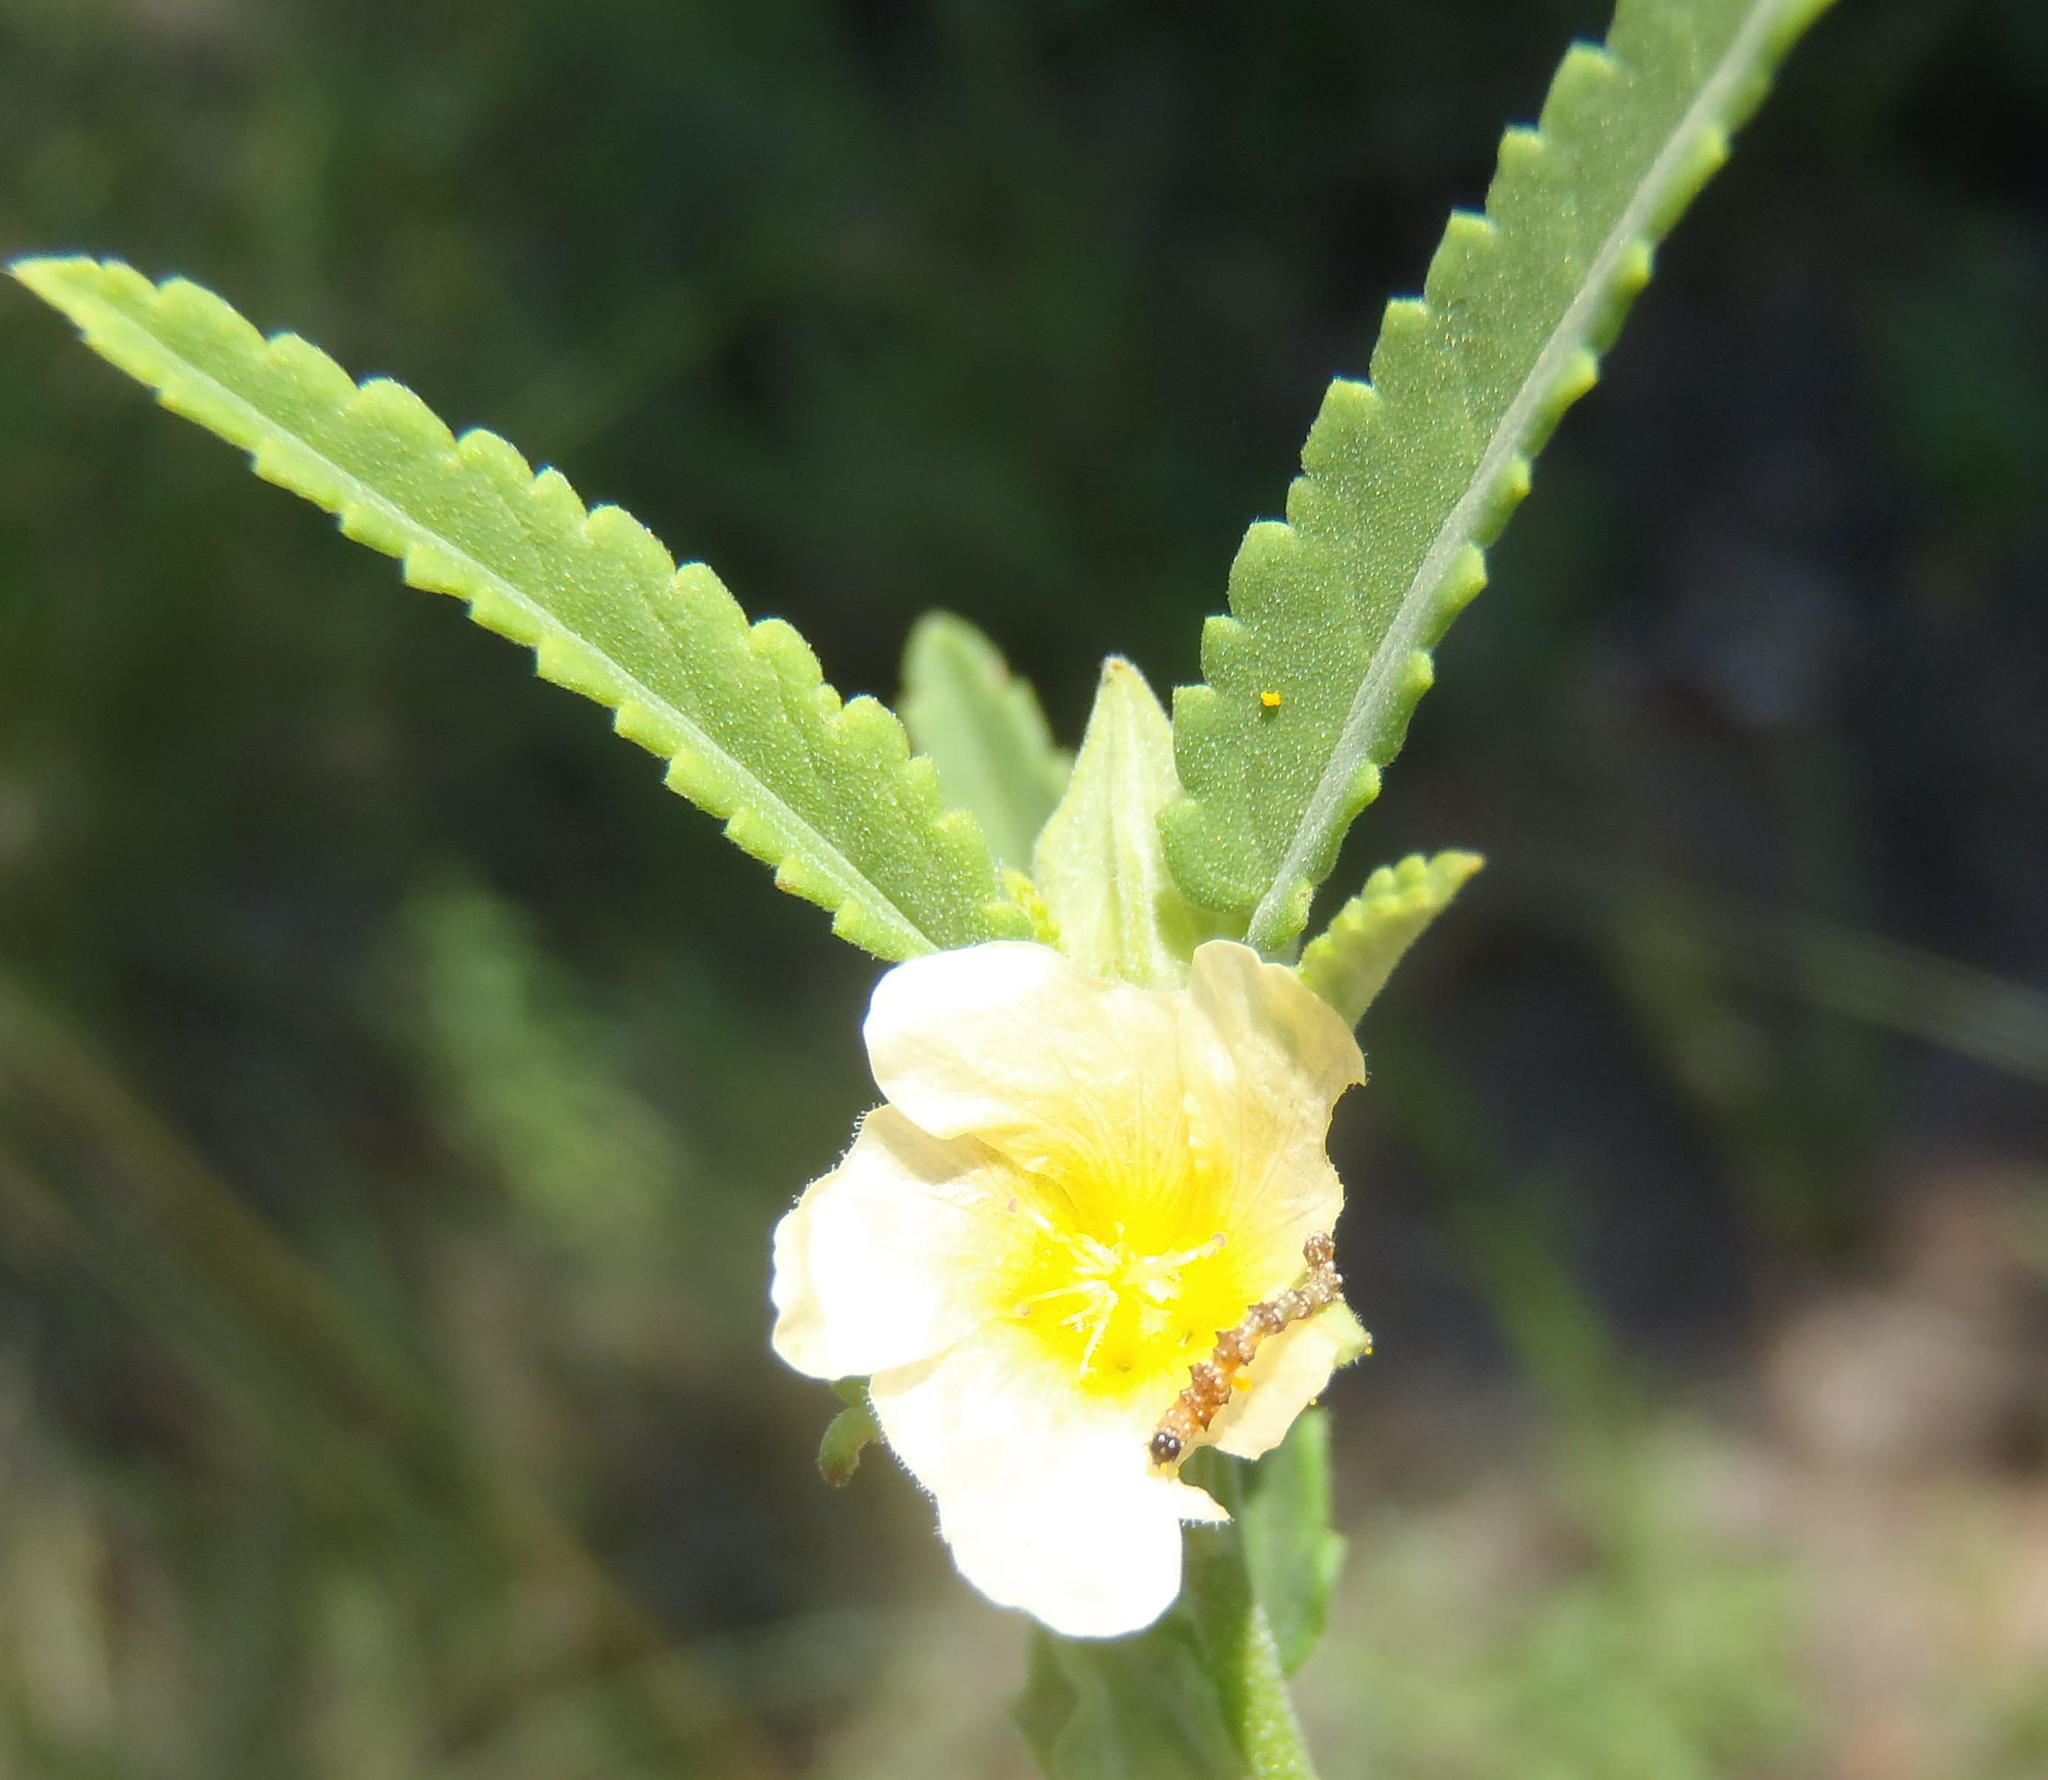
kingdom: Plantae
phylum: Tracheophyta
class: Magnoliopsida
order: Malvales
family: Malvaceae
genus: Sida
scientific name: Sida alba
